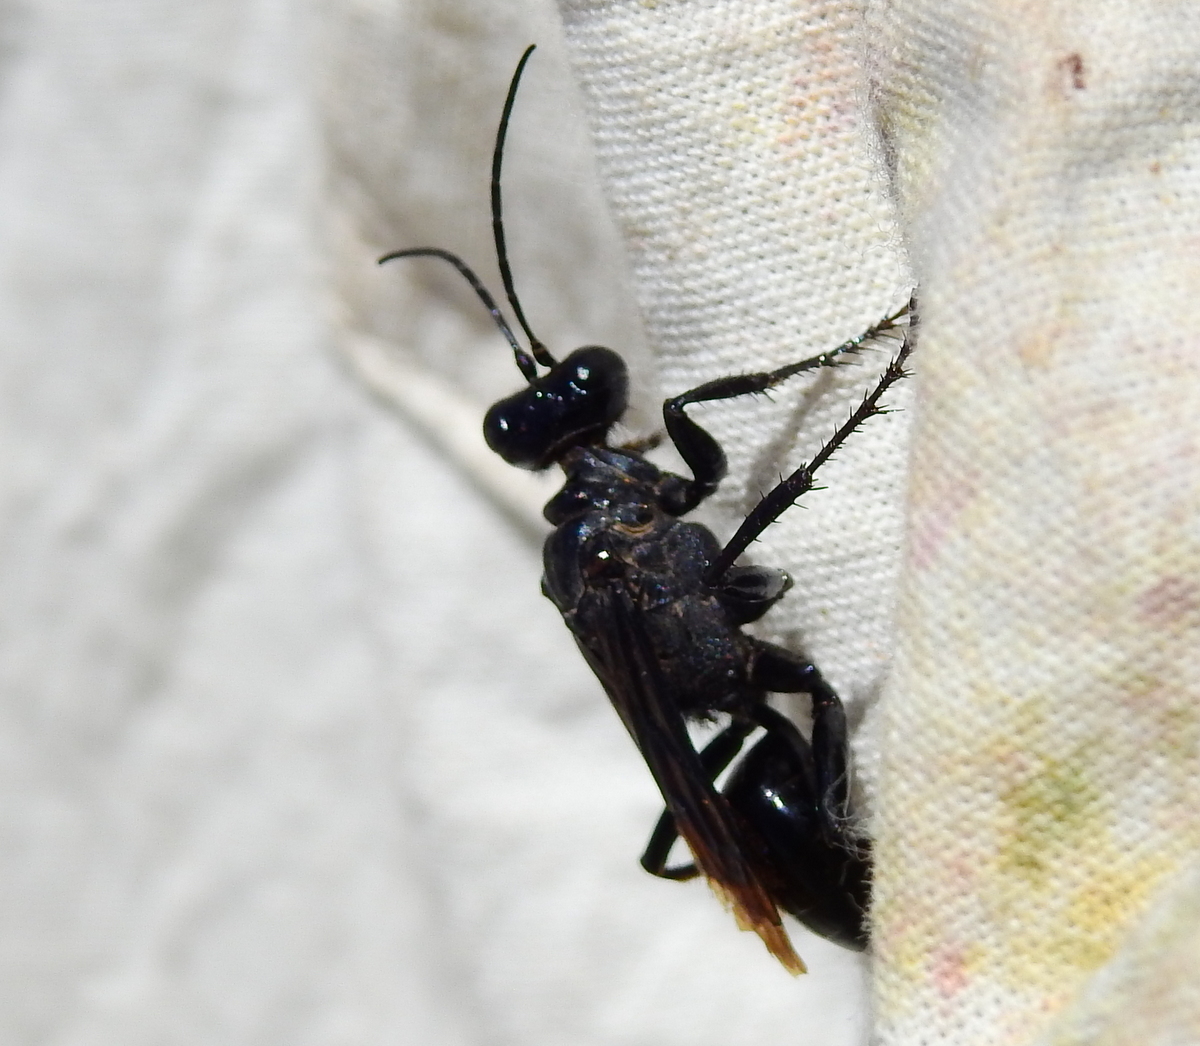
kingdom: Animalia
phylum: Arthropoda
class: Insecta
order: Hymenoptera
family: Sphecidae
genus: Stangeella
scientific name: Stangeella cyaniventris
